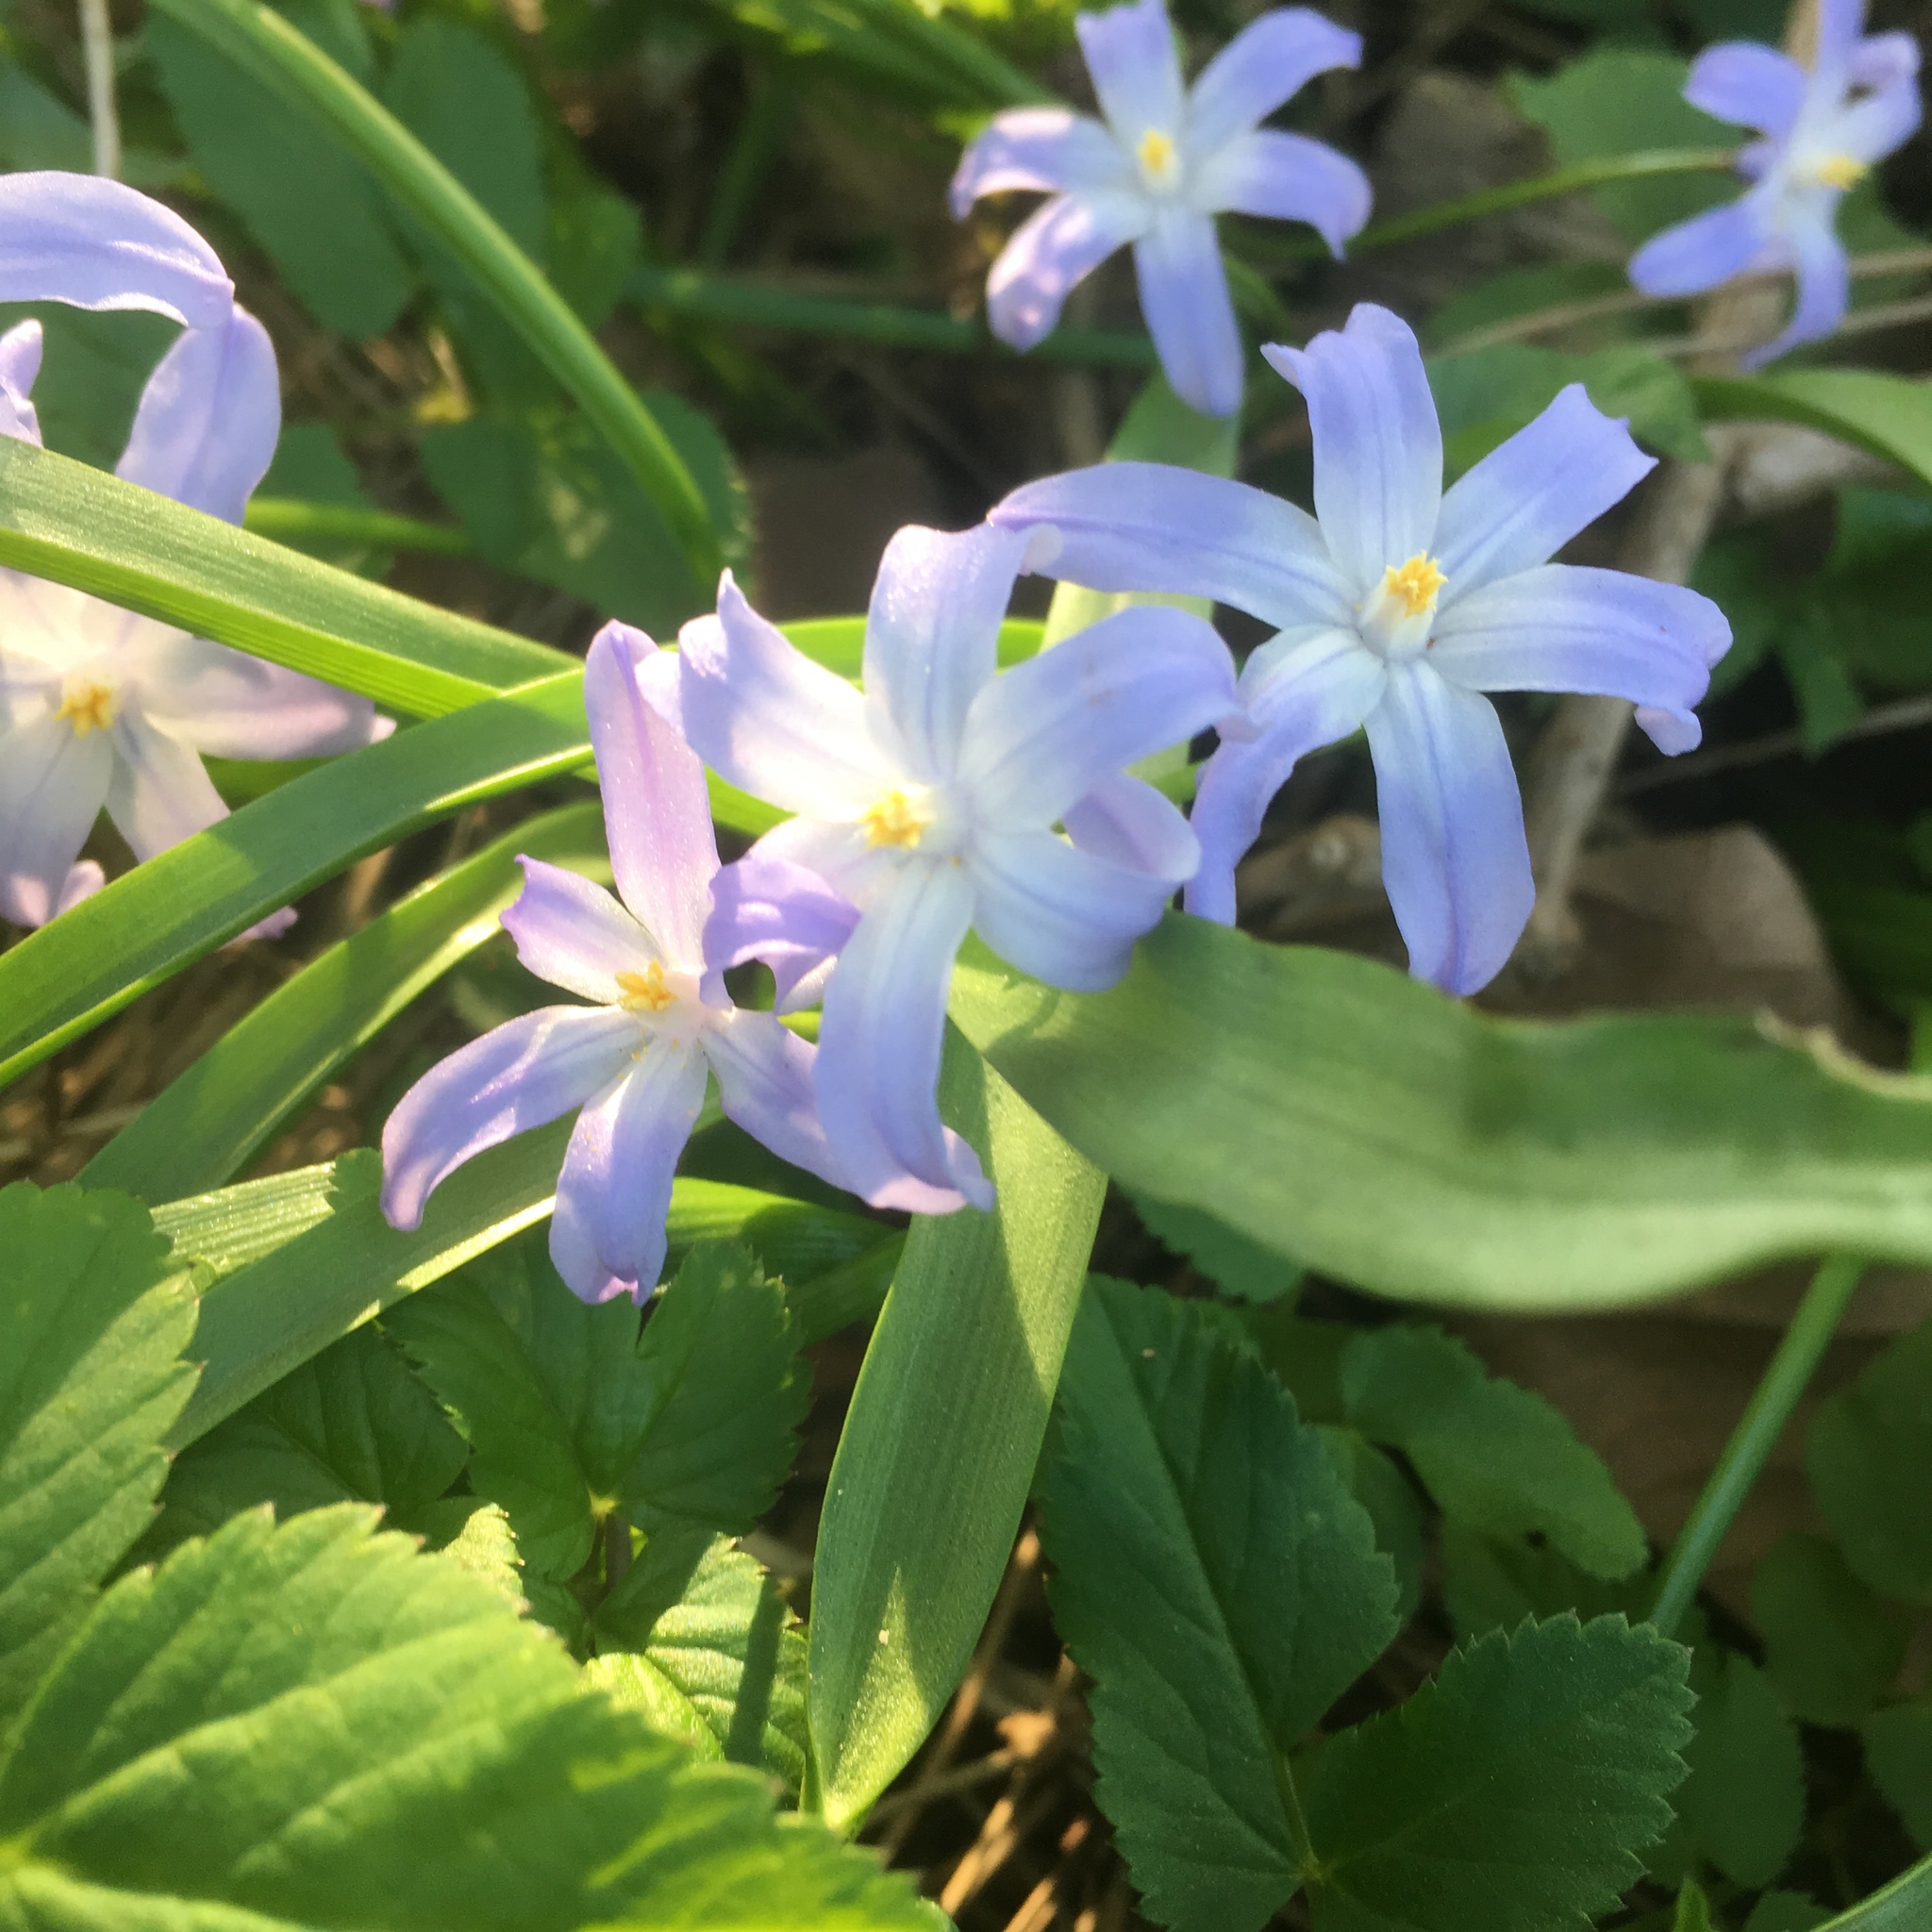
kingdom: Plantae
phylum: Tracheophyta
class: Liliopsida
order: Asparagales
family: Asparagaceae
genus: Scilla
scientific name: Scilla forbesii
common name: Glory-of-the-snow
